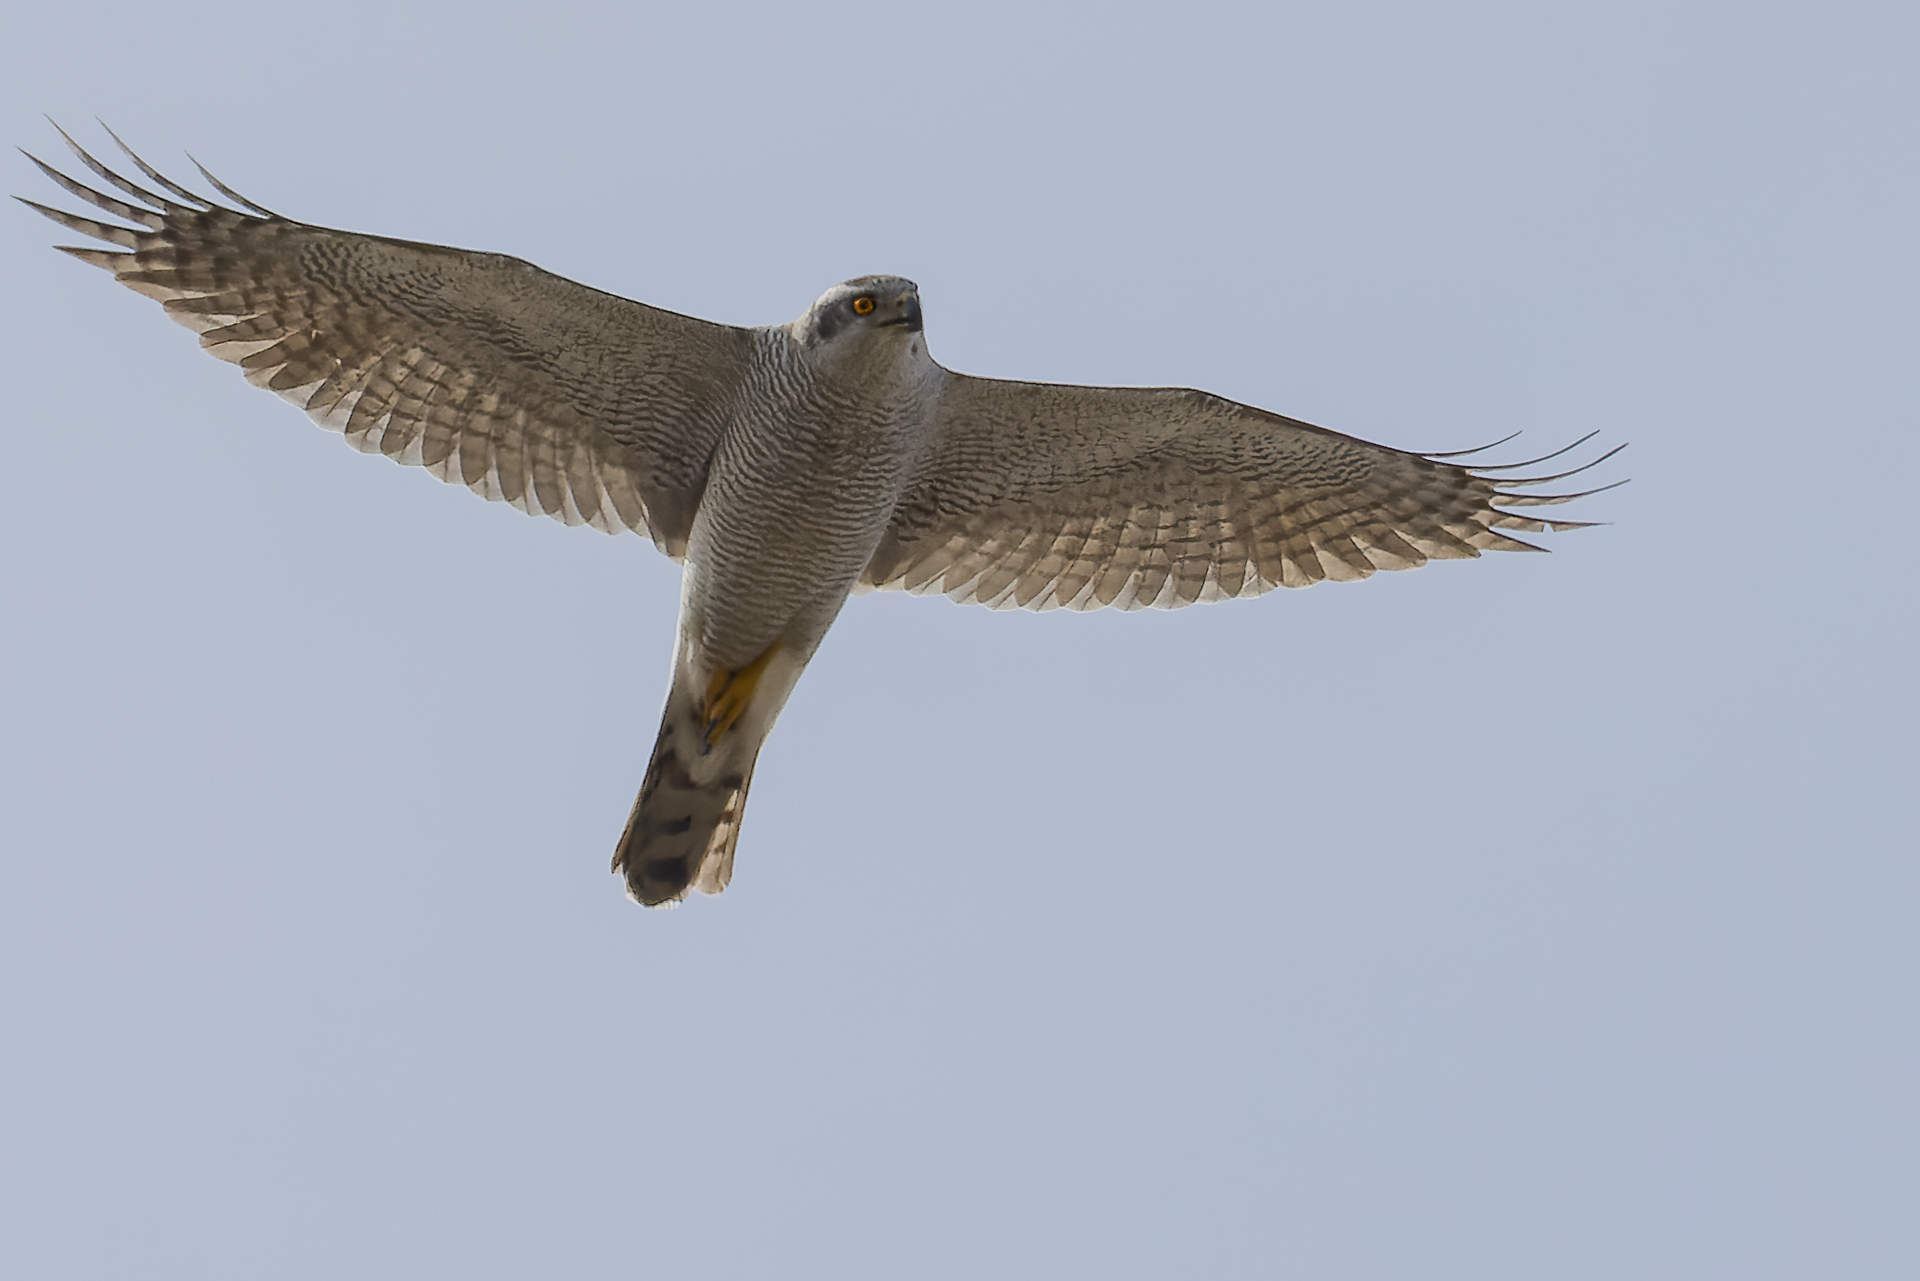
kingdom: Animalia
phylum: Chordata
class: Aves
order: Accipitriformes
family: Accipitridae
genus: Accipiter
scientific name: Accipiter gentilis
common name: Northern goshawk
